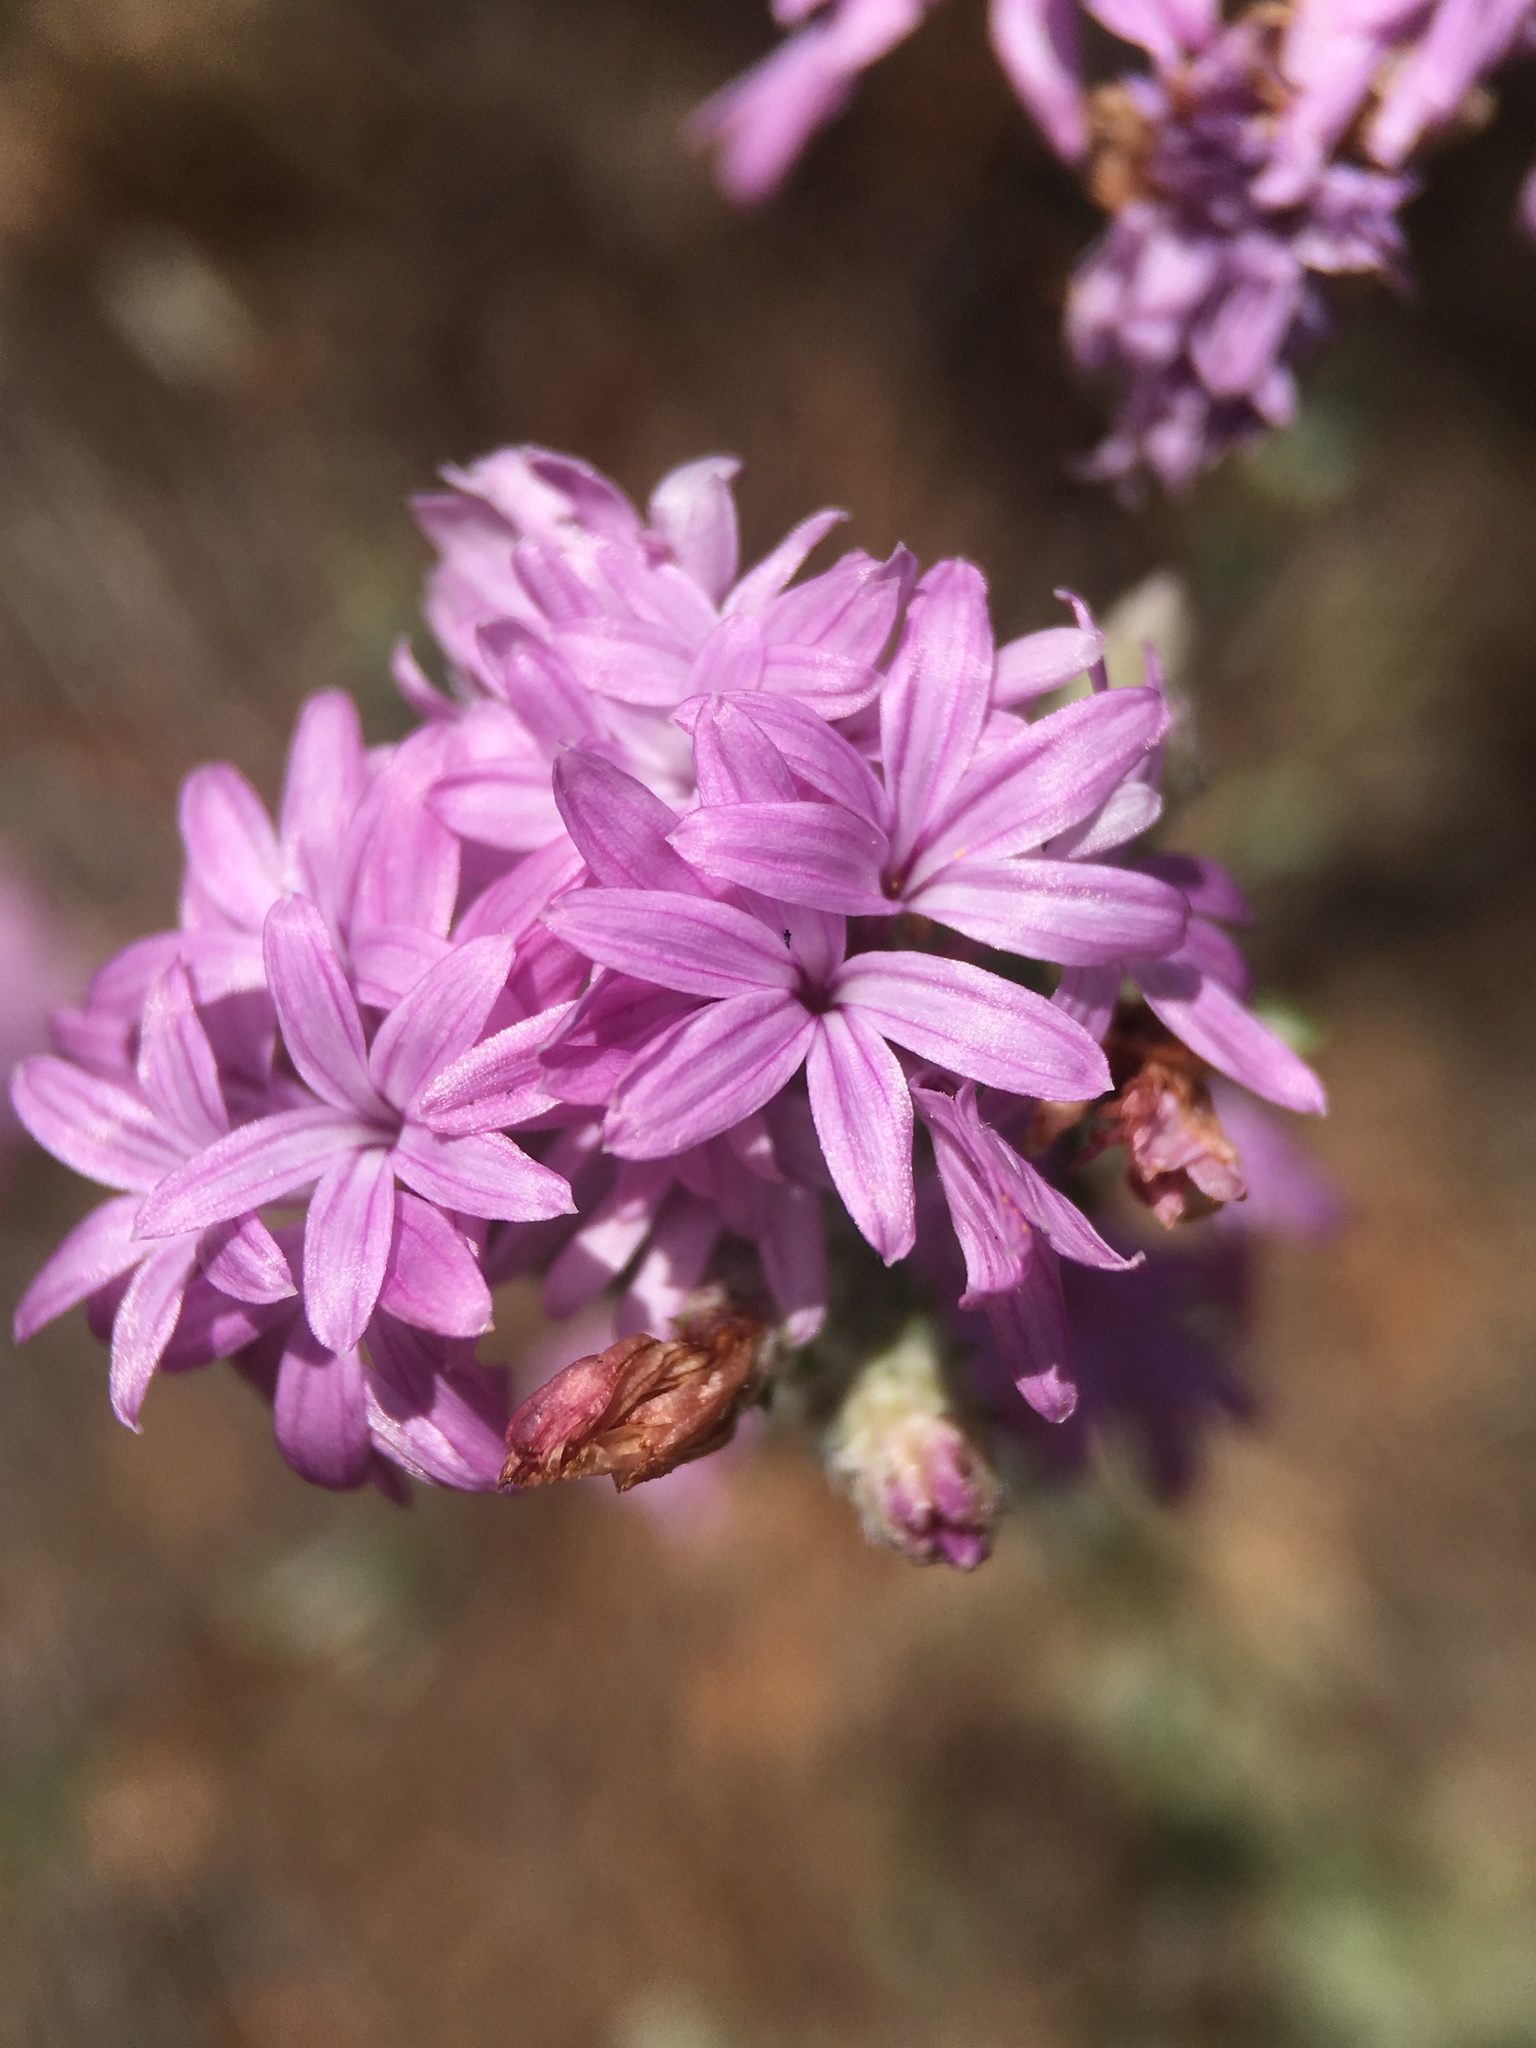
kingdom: Plantae
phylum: Tracheophyta
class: Magnoliopsida
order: Asterales
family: Asteraceae
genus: Lessingia
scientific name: Lessingia leptoclada
